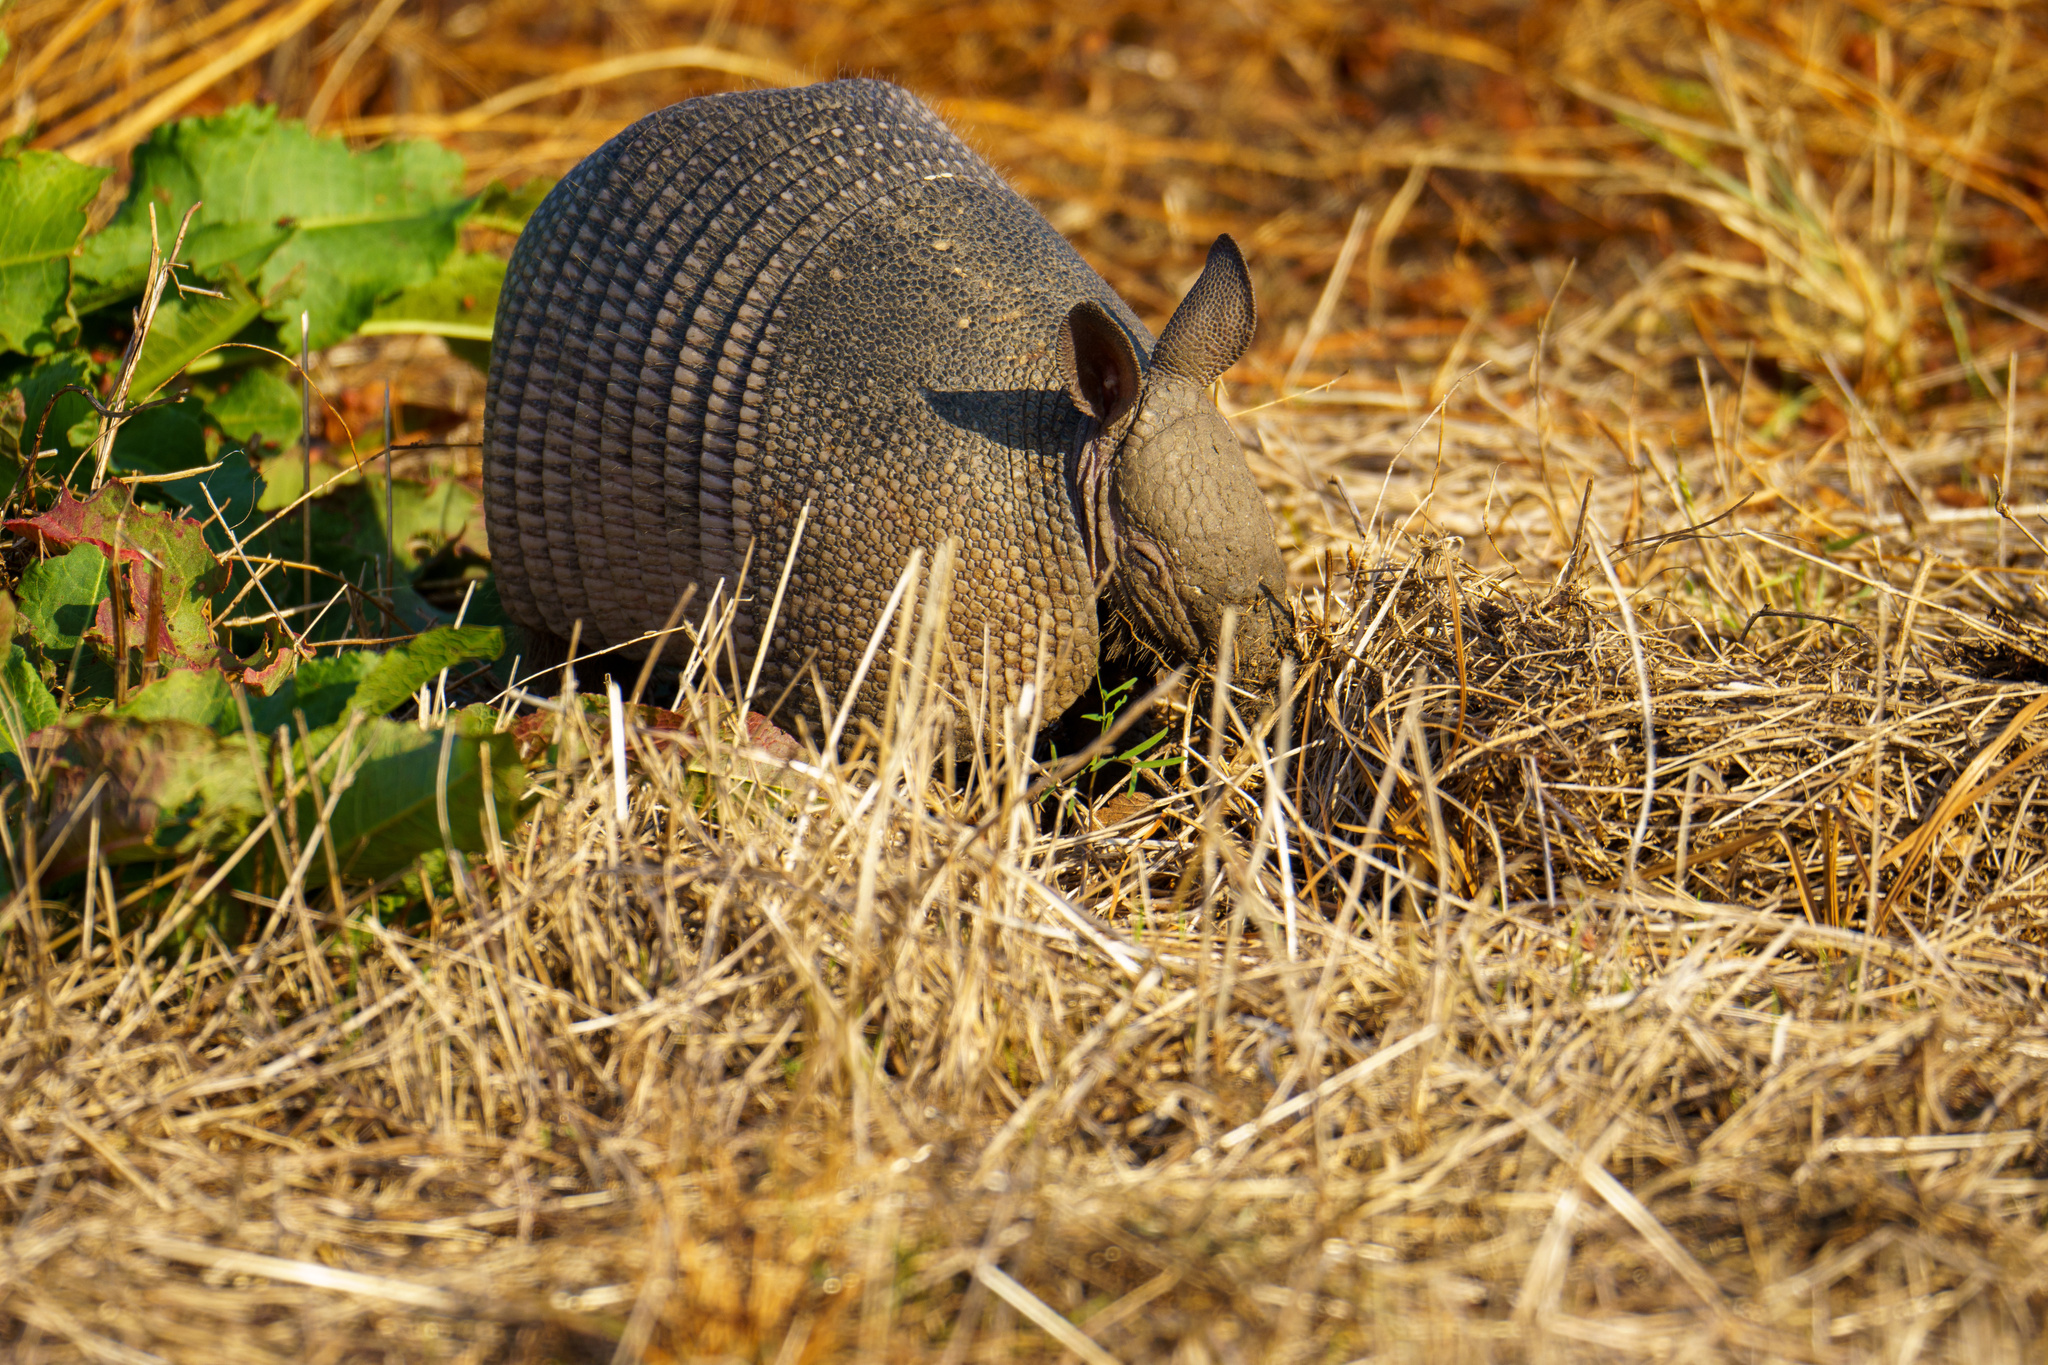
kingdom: Animalia
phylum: Chordata
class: Mammalia
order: Cingulata
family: Dasypodidae
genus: Dasypus
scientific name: Dasypus novemcinctus
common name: Nine-banded armadillo
